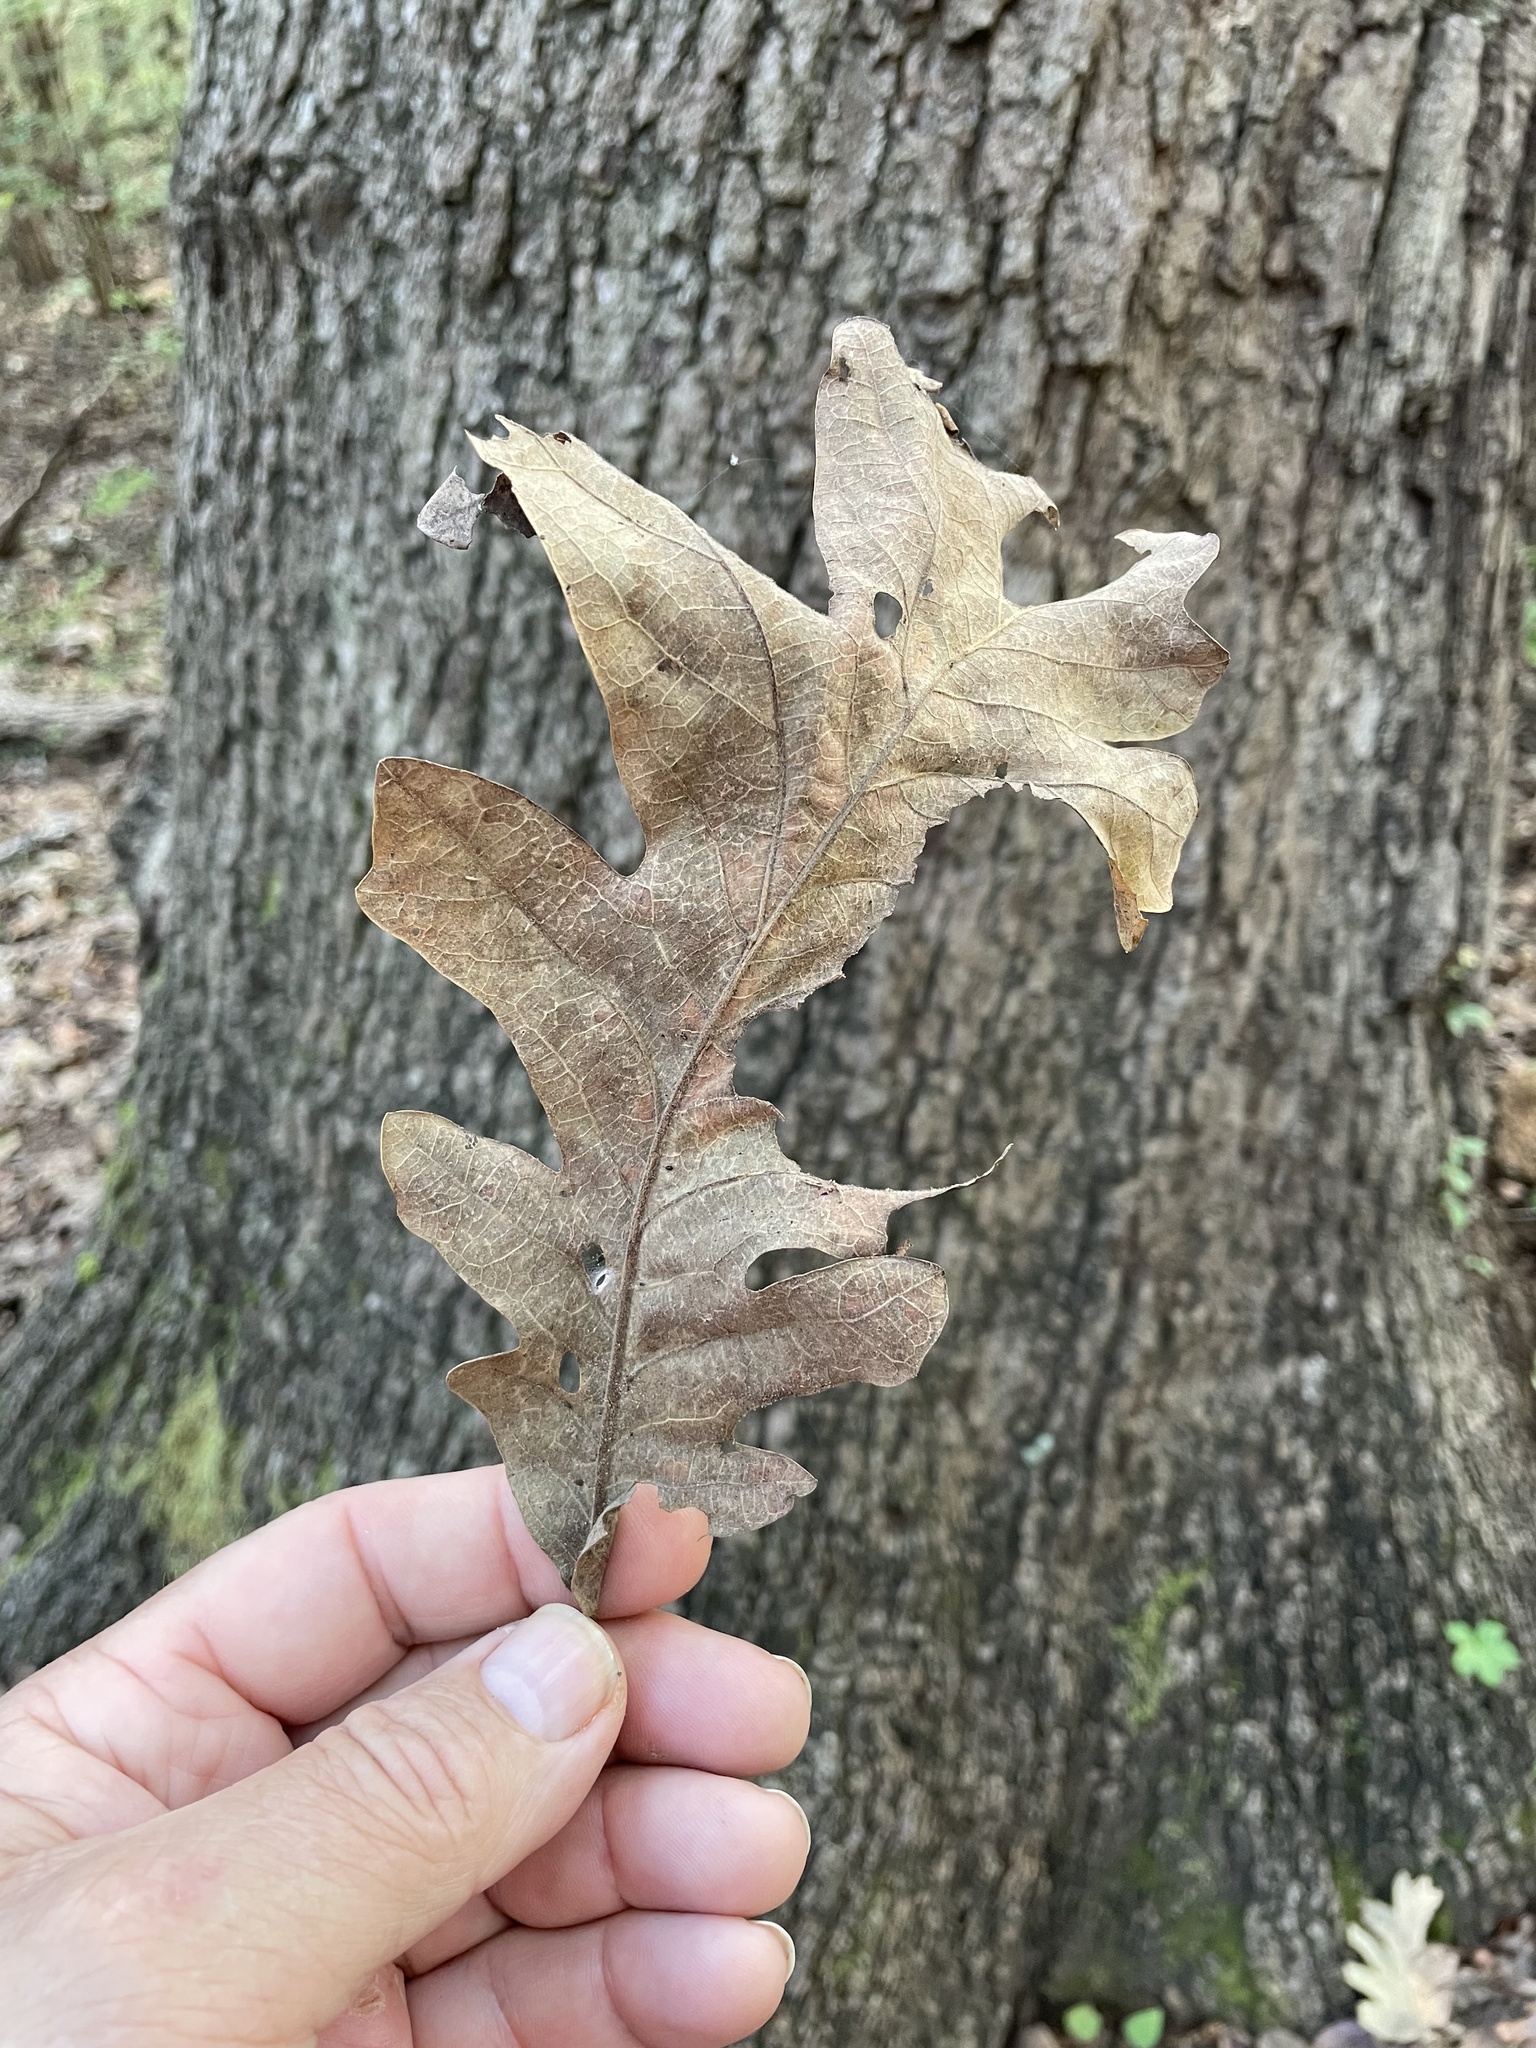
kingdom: Plantae
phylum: Tracheophyta
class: Magnoliopsida
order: Fagales
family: Fagaceae
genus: Quercus
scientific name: Quercus macrocarpa
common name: Bur oak
